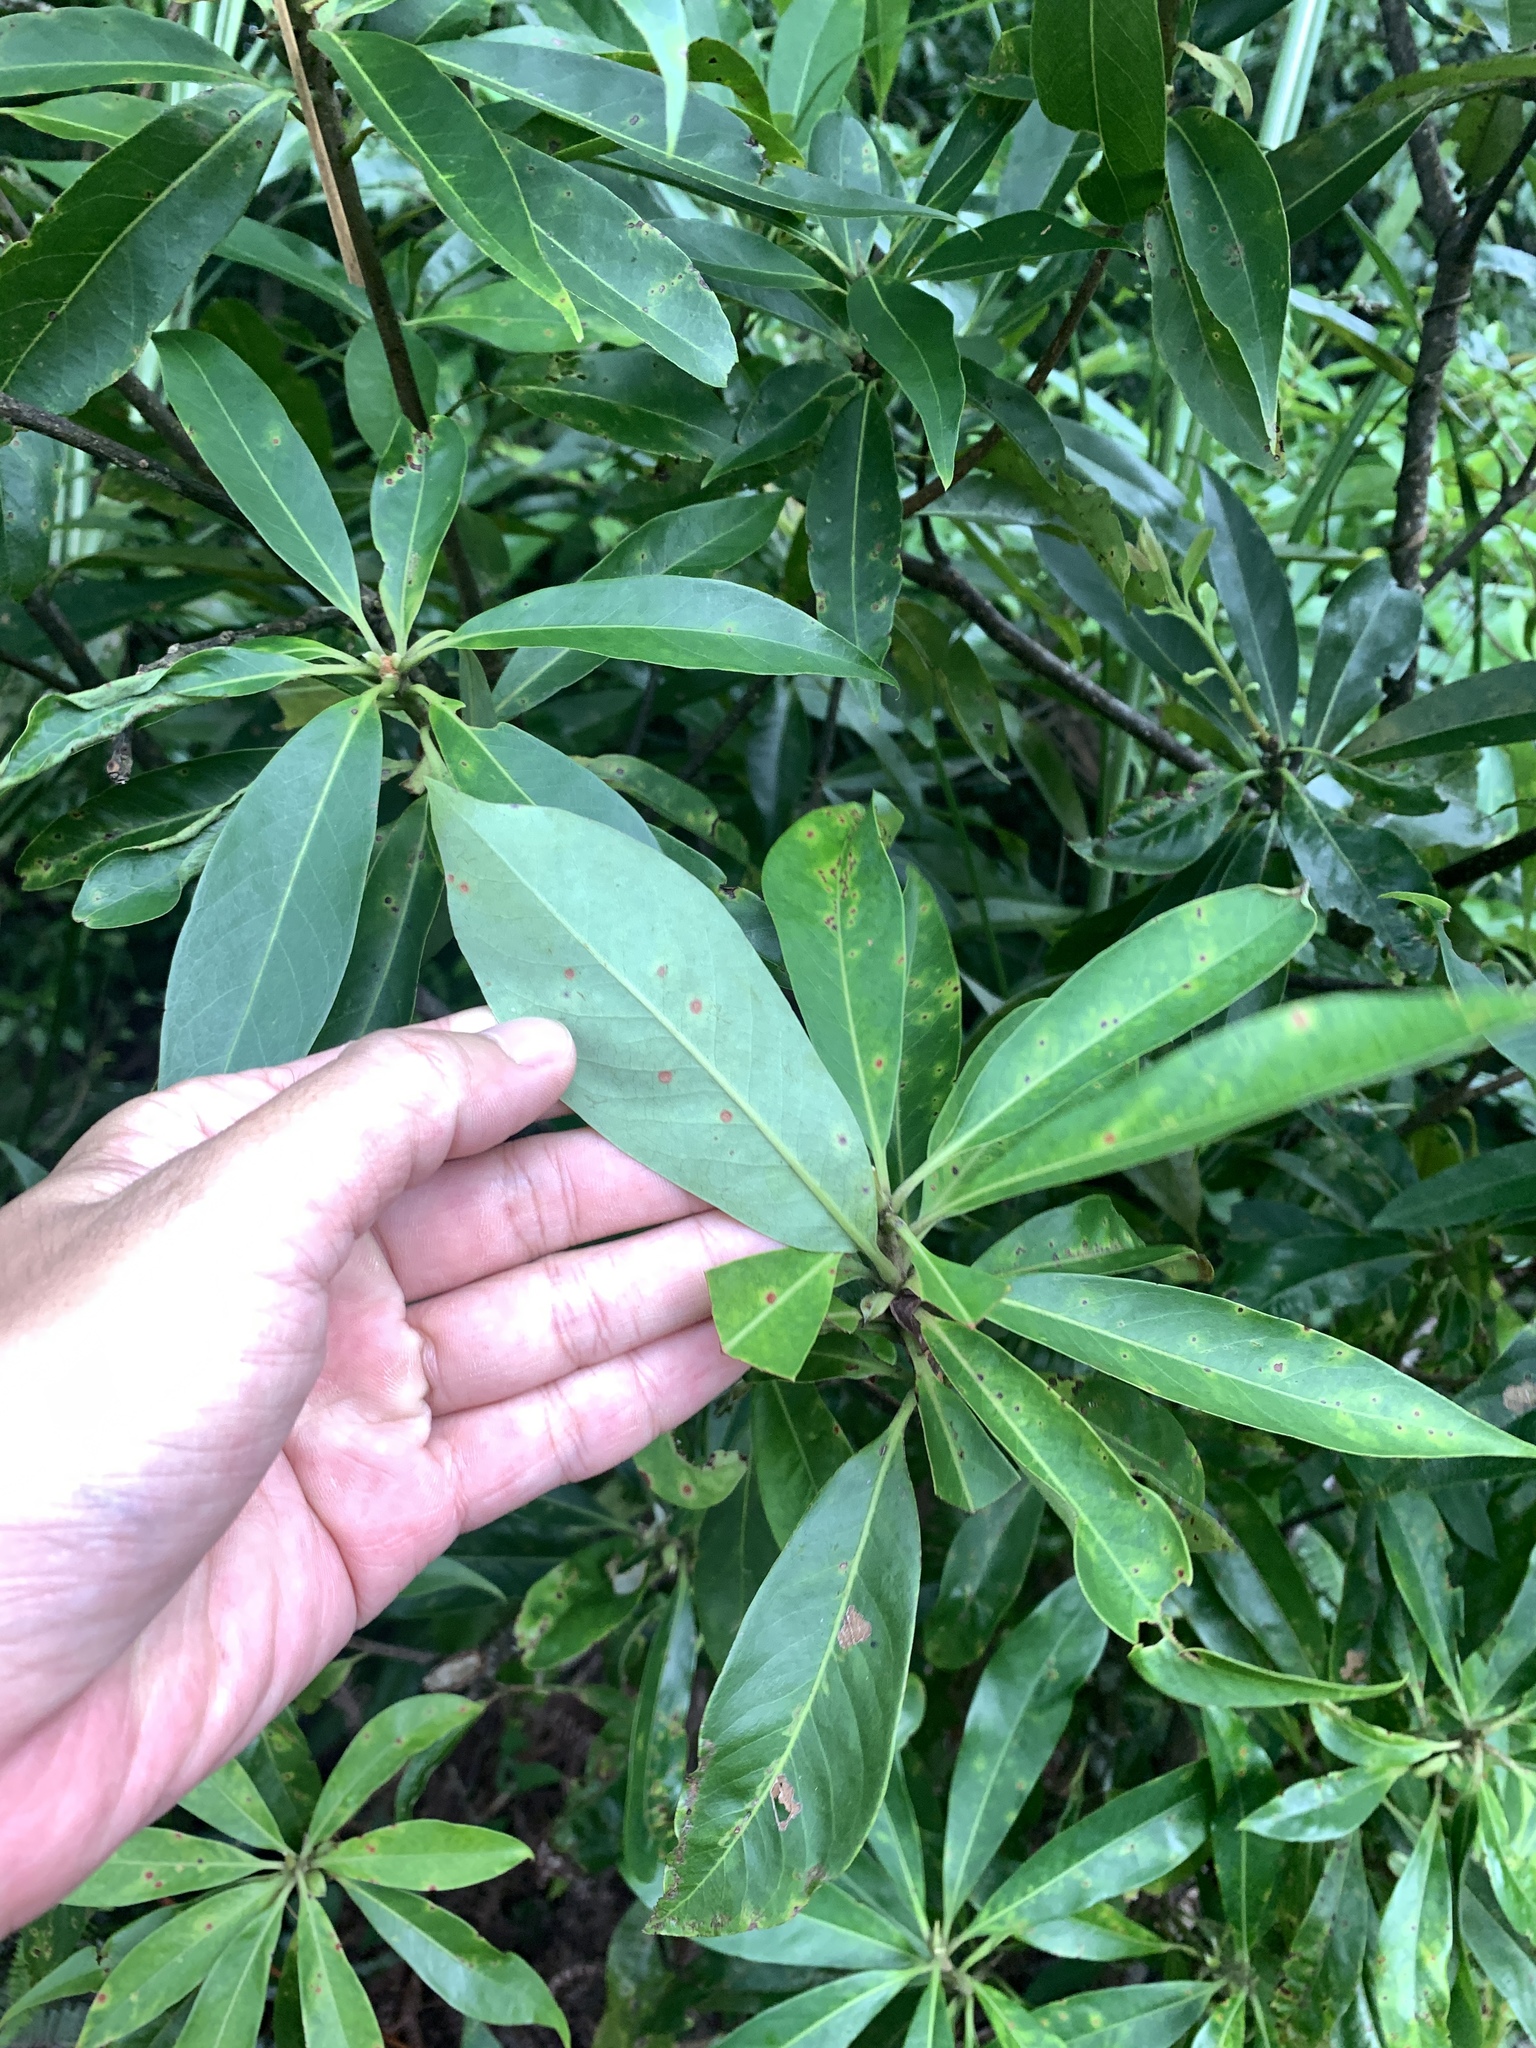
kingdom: Plantae
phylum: Tracheophyta
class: Magnoliopsida
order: Ericales
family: Theaceae
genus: Schima
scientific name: Schima superba
